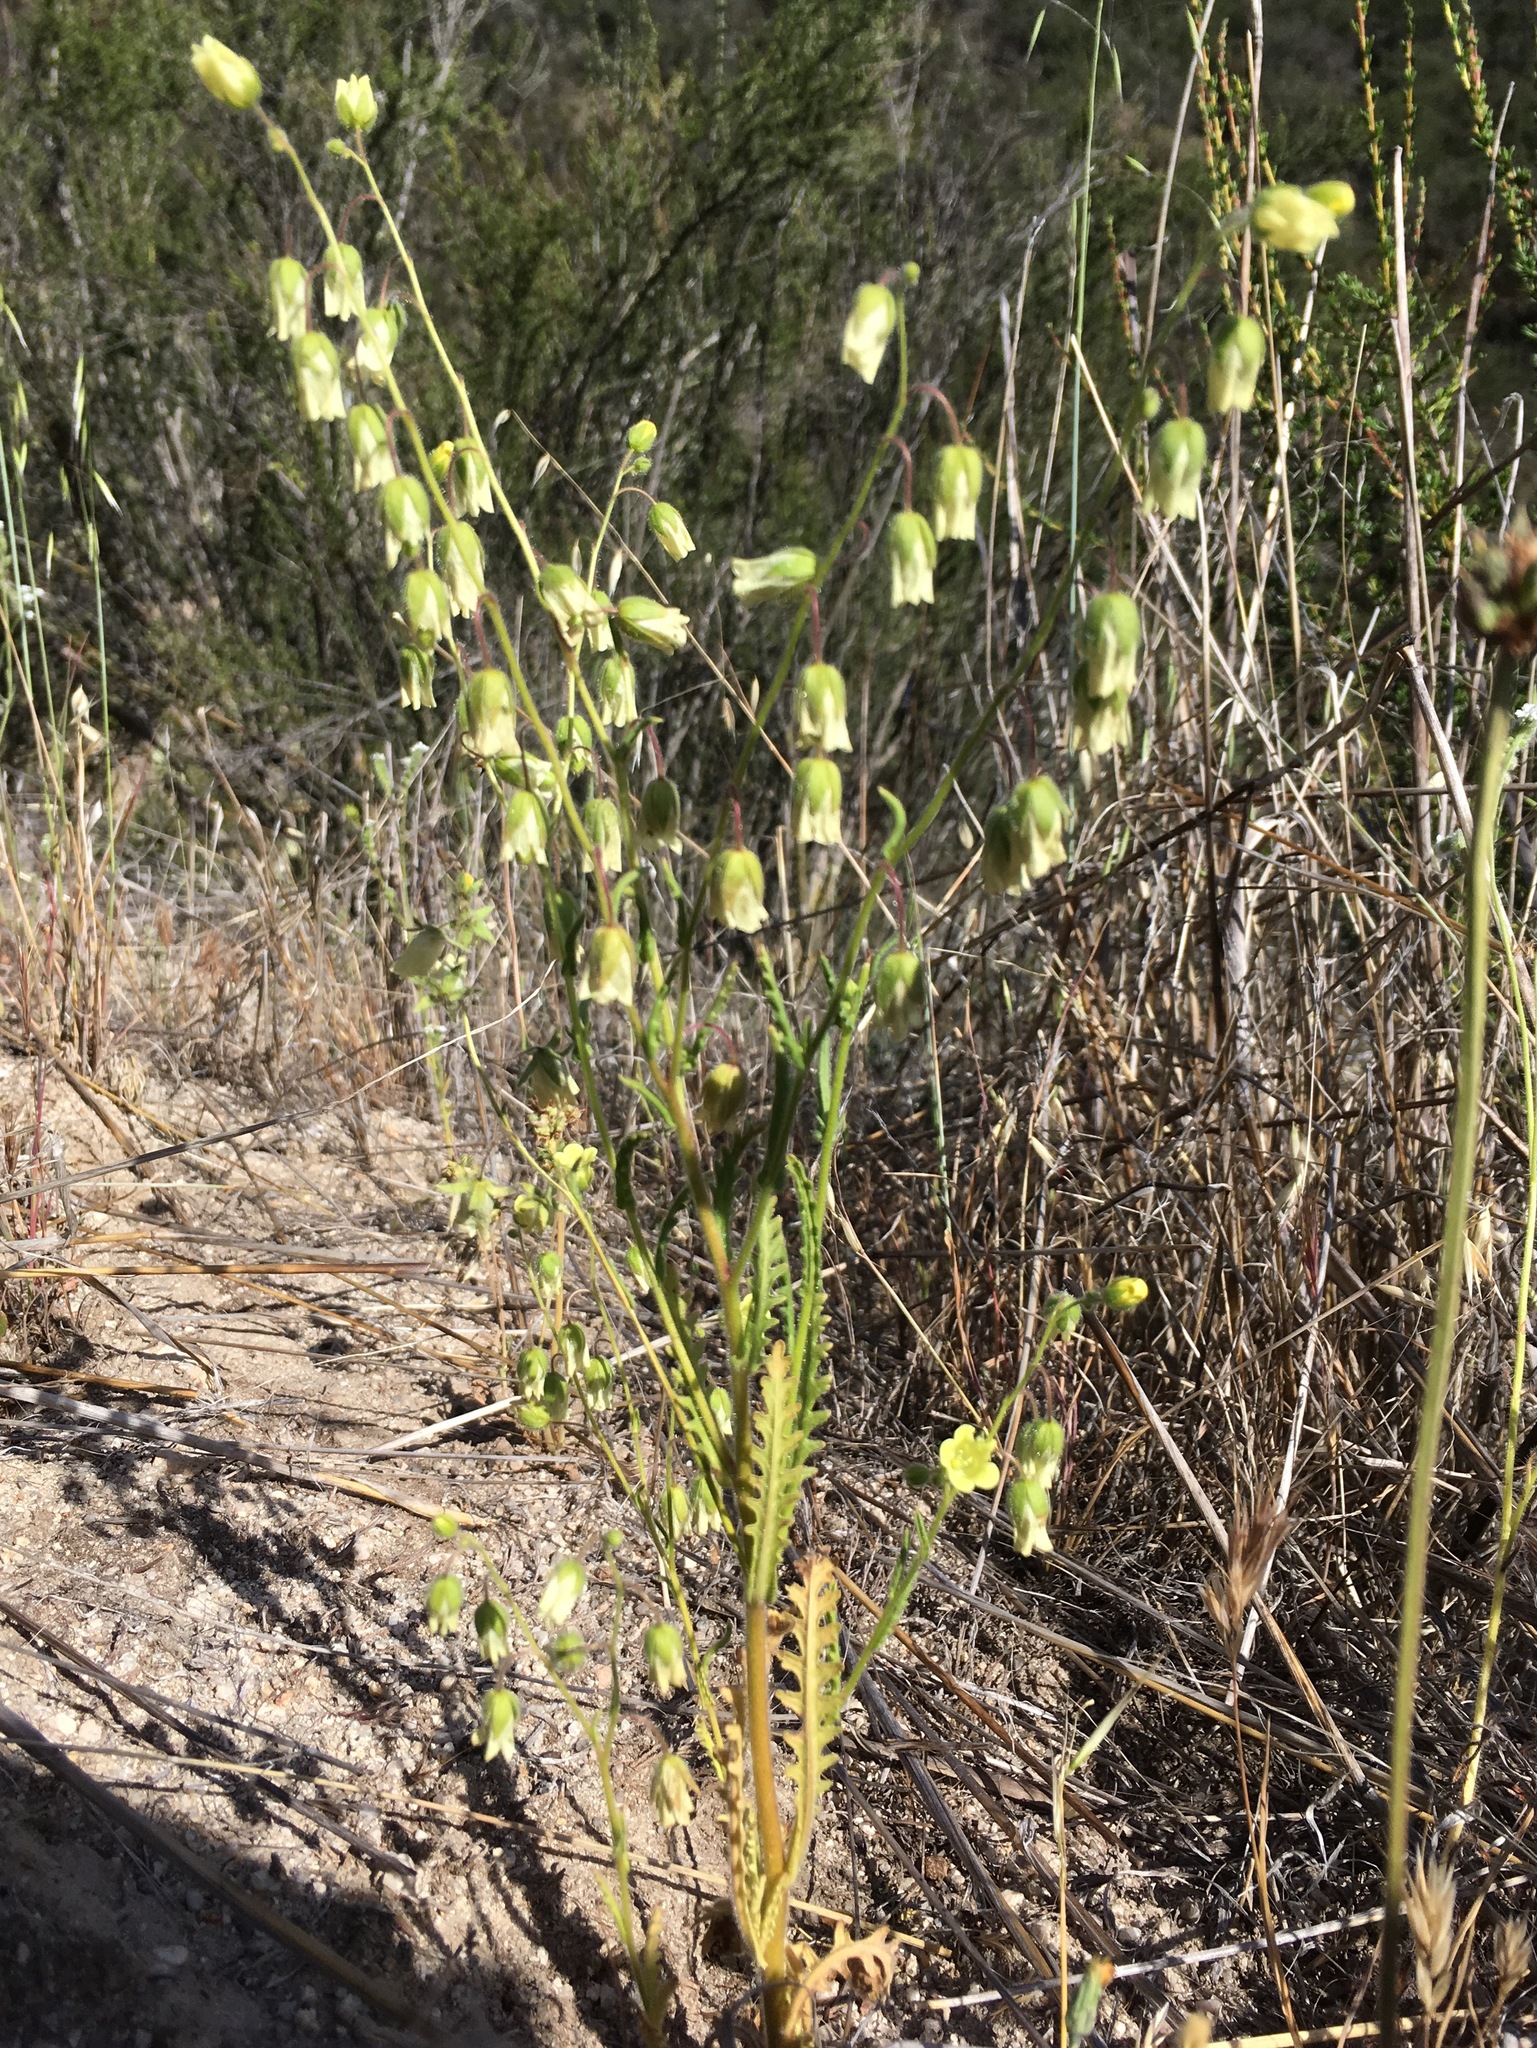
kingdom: Plantae
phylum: Tracheophyta
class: Magnoliopsida
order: Boraginales
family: Hydrophyllaceae
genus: Emmenanthe
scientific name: Emmenanthe penduliflora
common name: Whispering-bells
